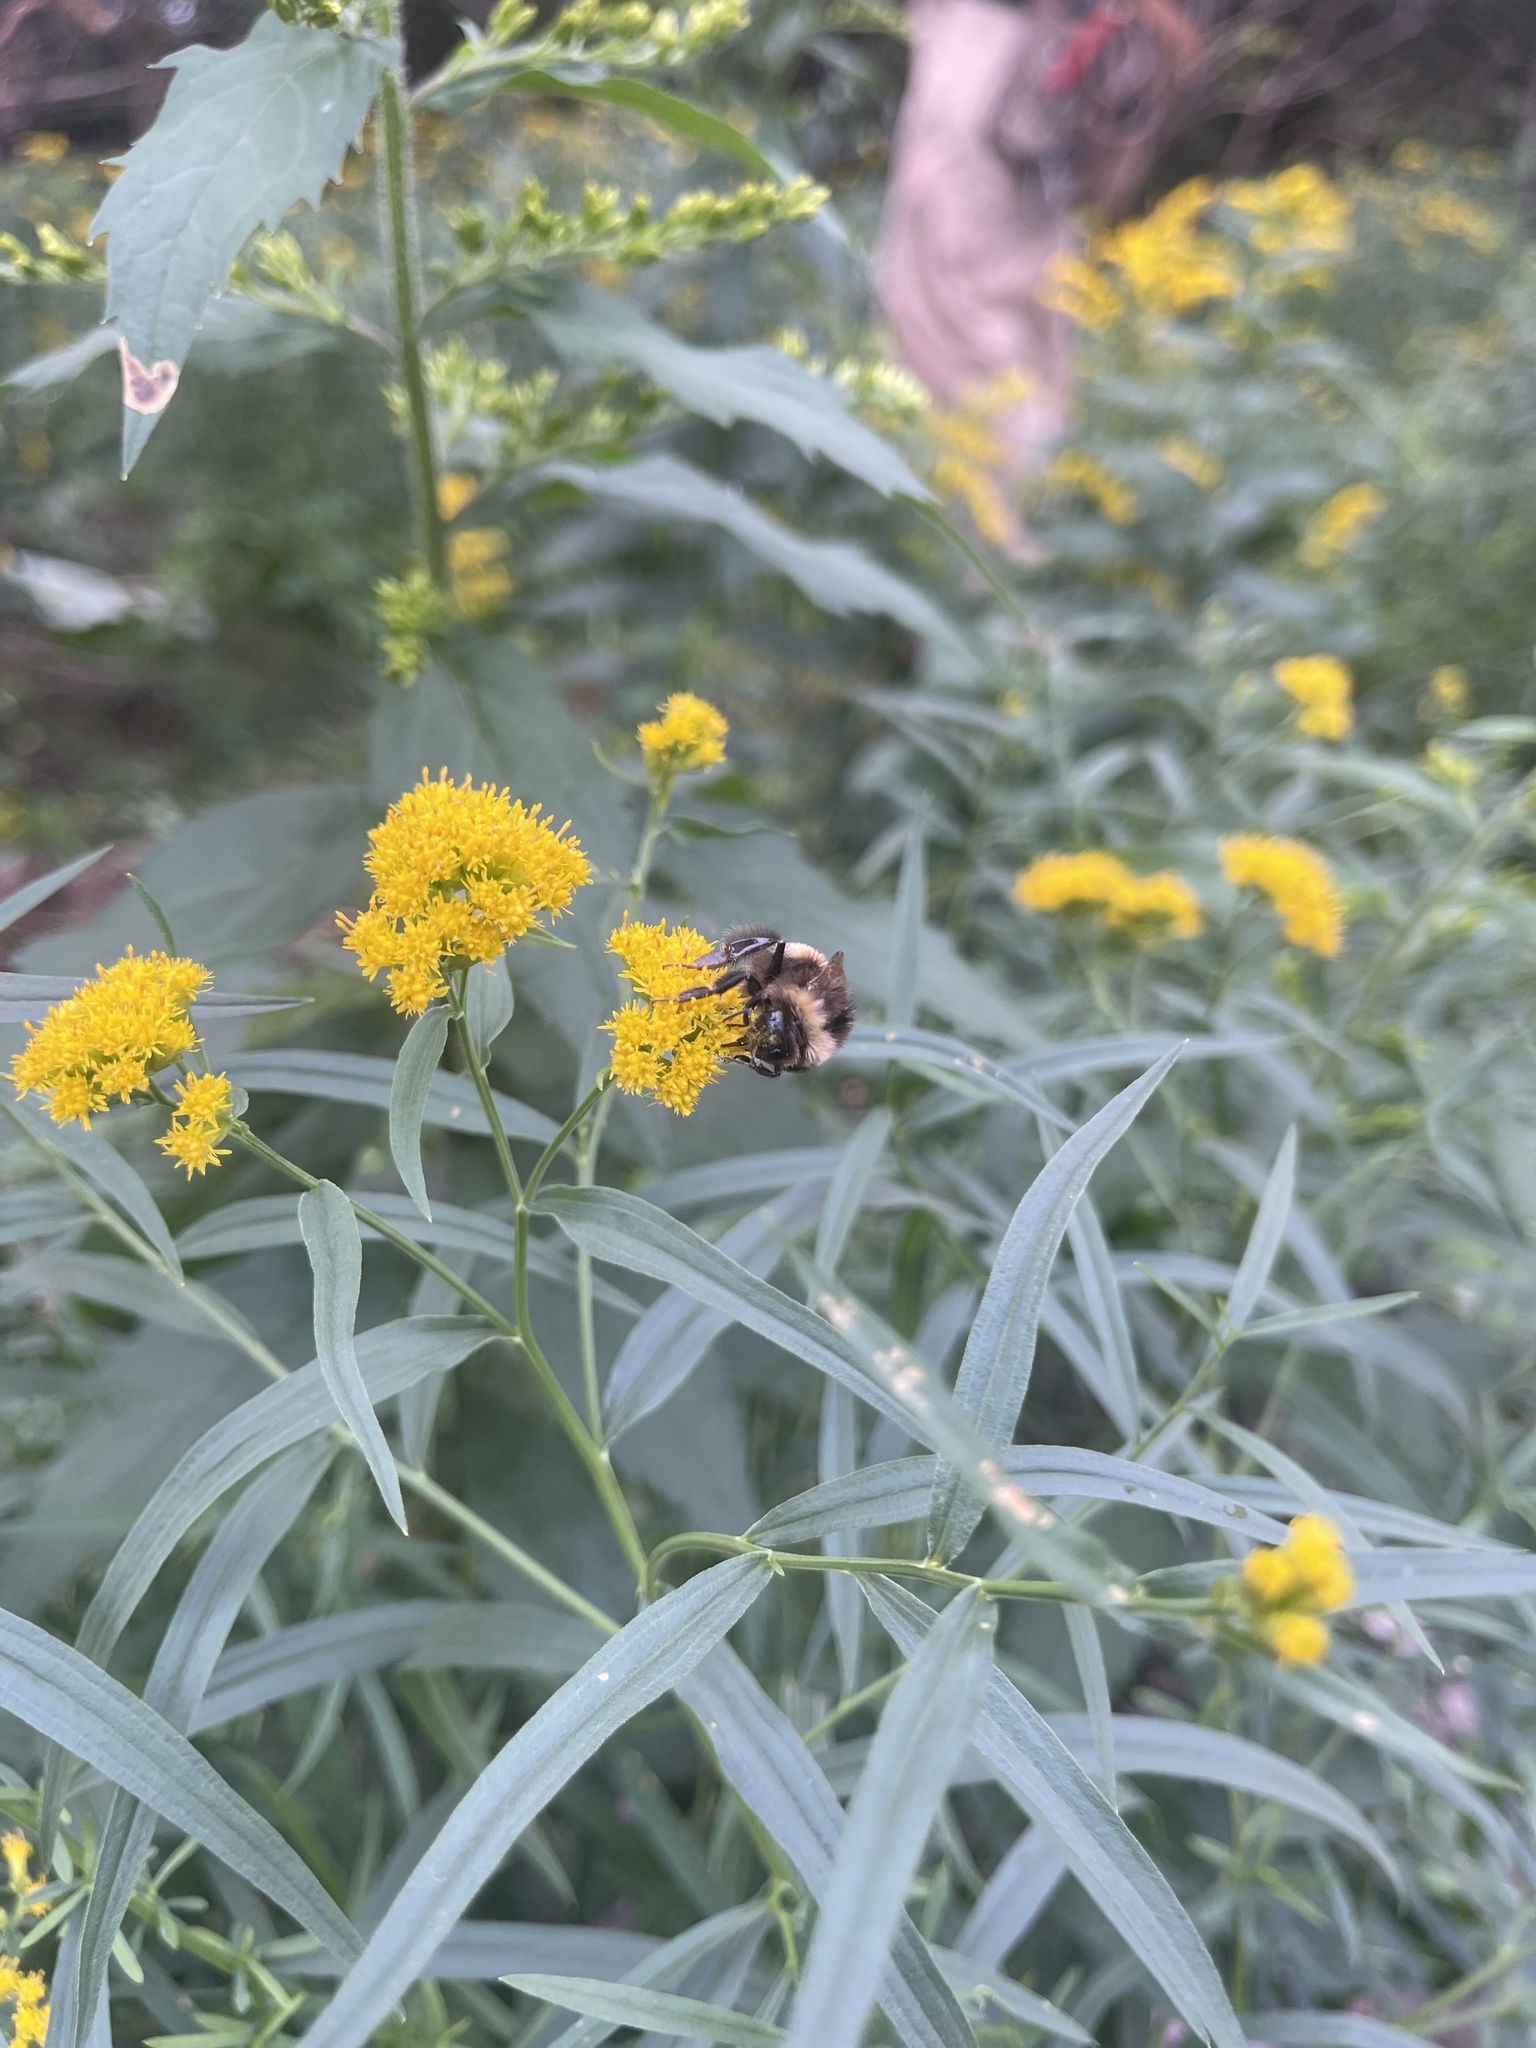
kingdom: Animalia
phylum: Arthropoda
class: Insecta
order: Hymenoptera
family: Apidae
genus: Bombus
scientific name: Bombus terricola
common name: Yellow-banded bumble bee
